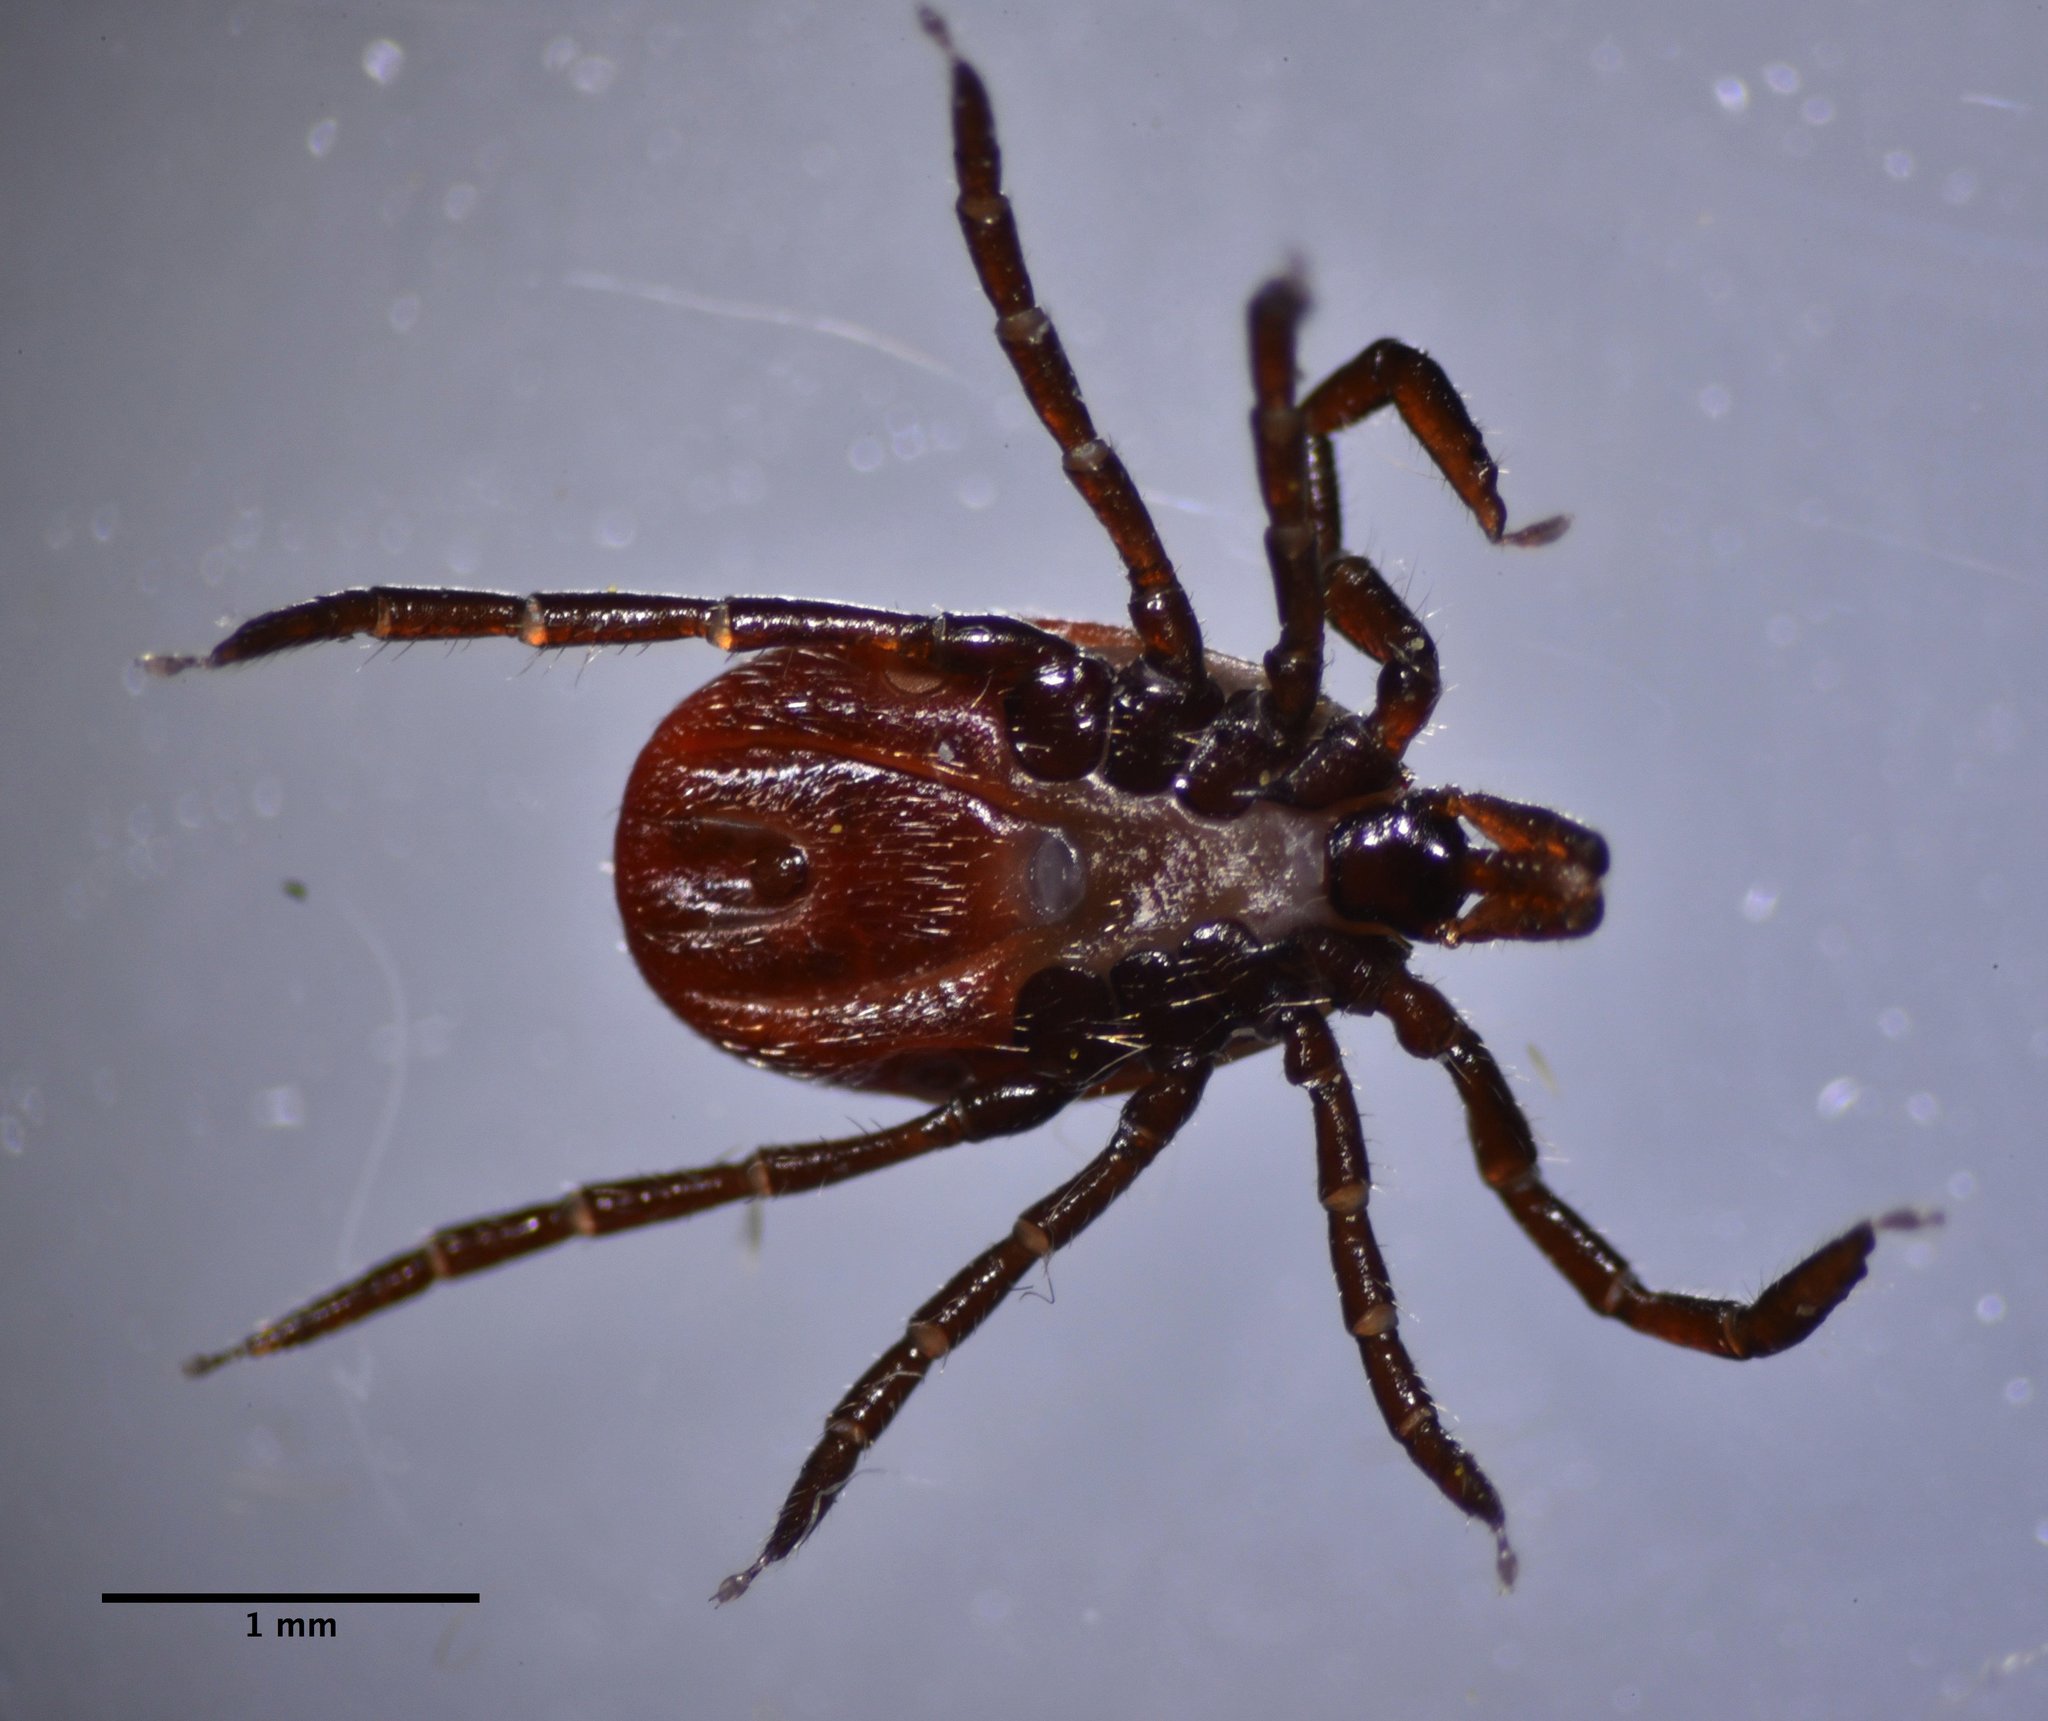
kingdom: Animalia
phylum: Arthropoda
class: Arachnida
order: Ixodida
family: Ixodidae
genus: Ixodes
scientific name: Ixodes pacificus
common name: California black-legged tick
